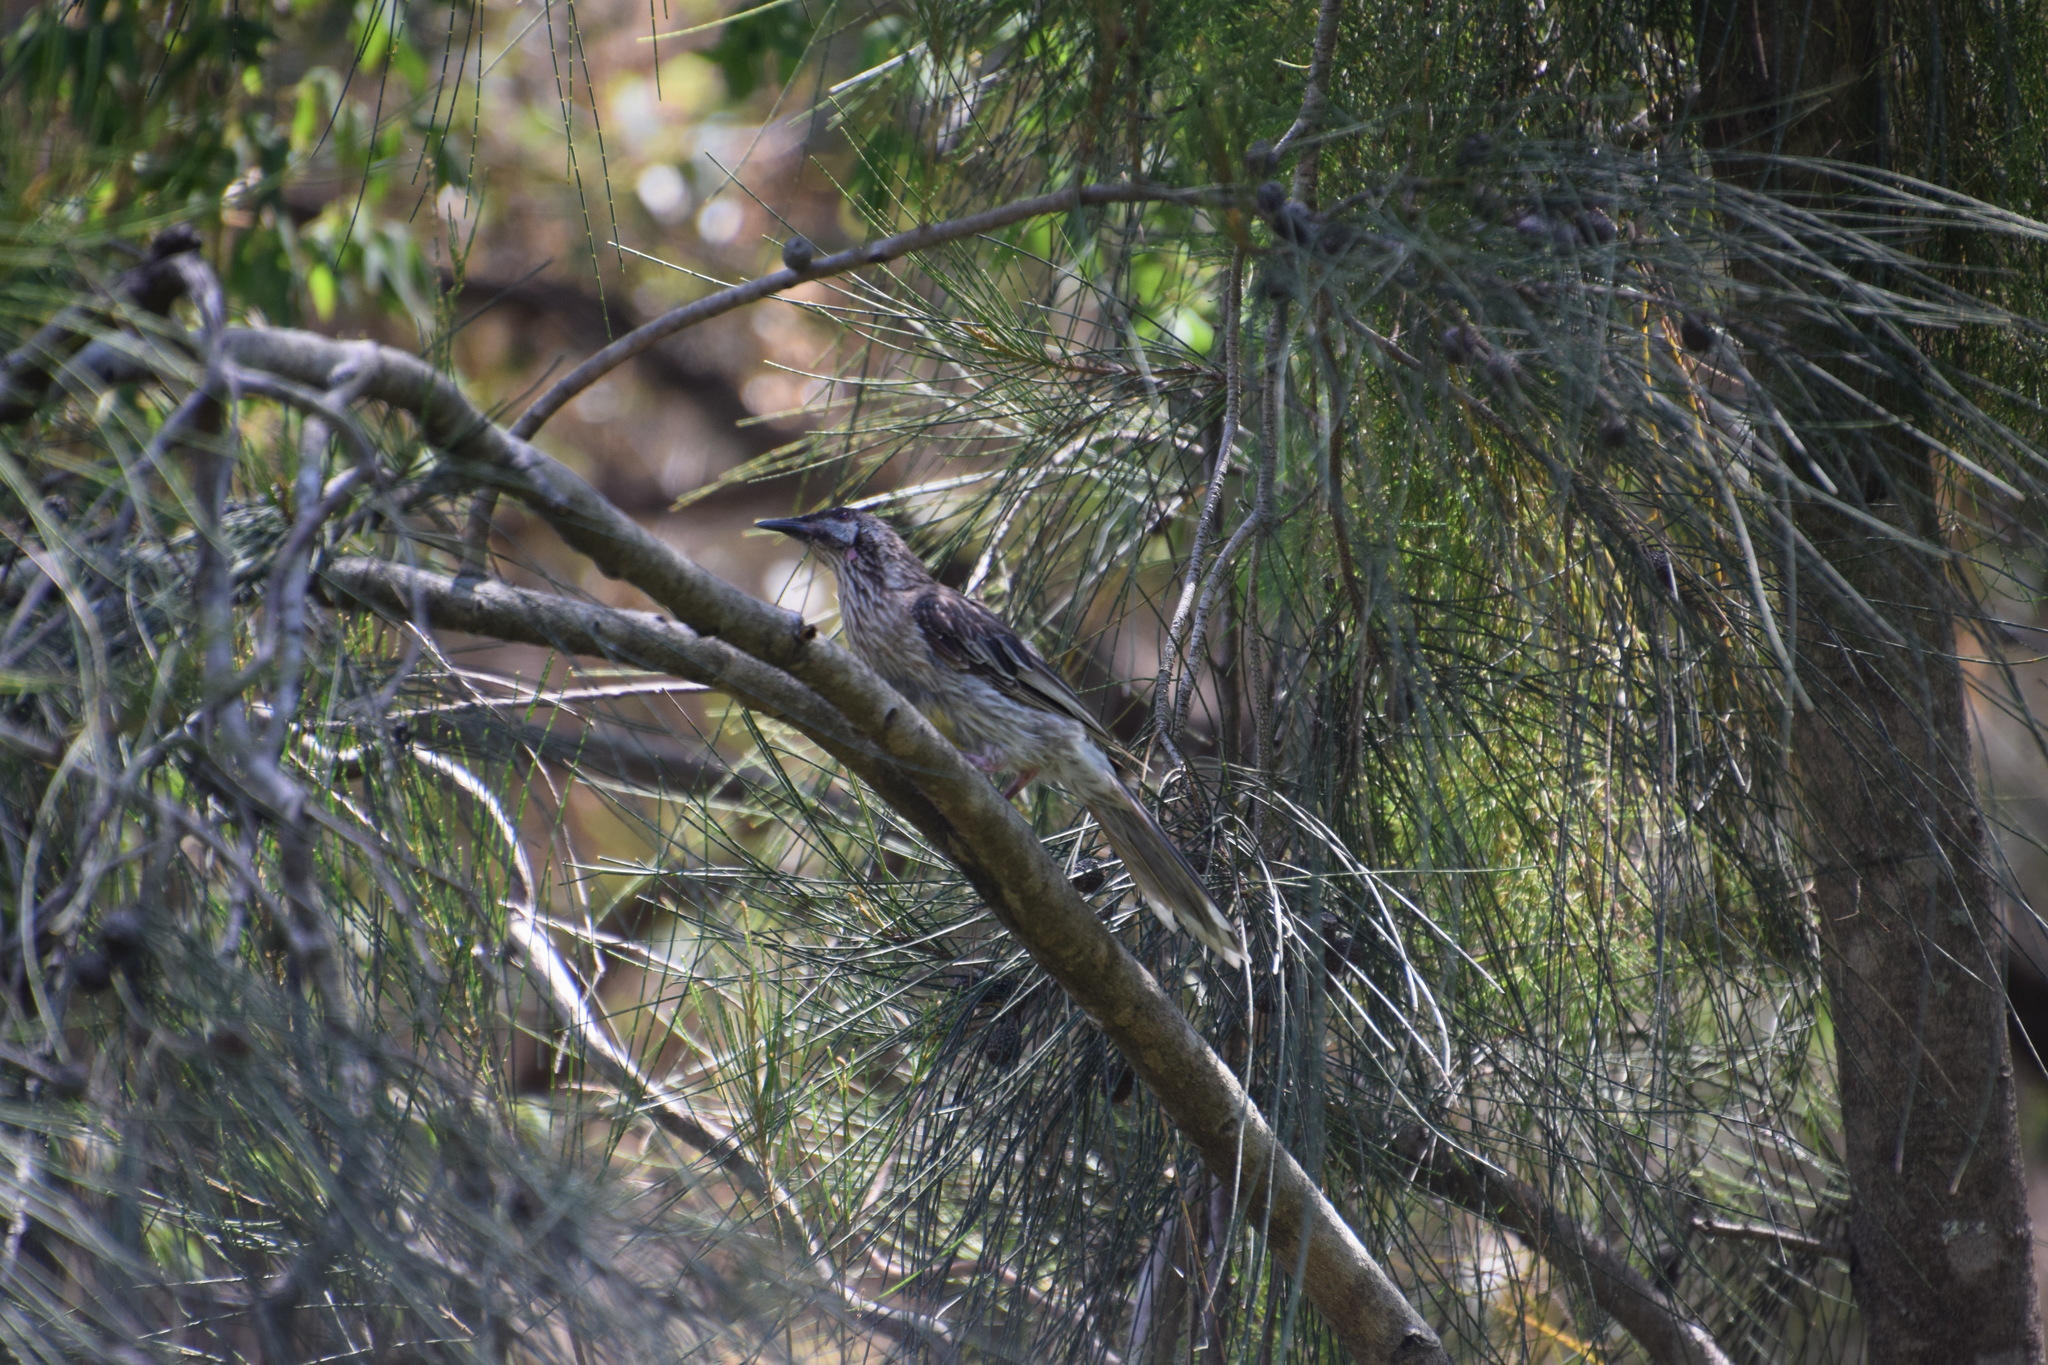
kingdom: Animalia
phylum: Chordata
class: Aves
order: Passeriformes
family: Meliphagidae
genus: Anthochaera
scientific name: Anthochaera carunculata
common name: Red wattlebird
